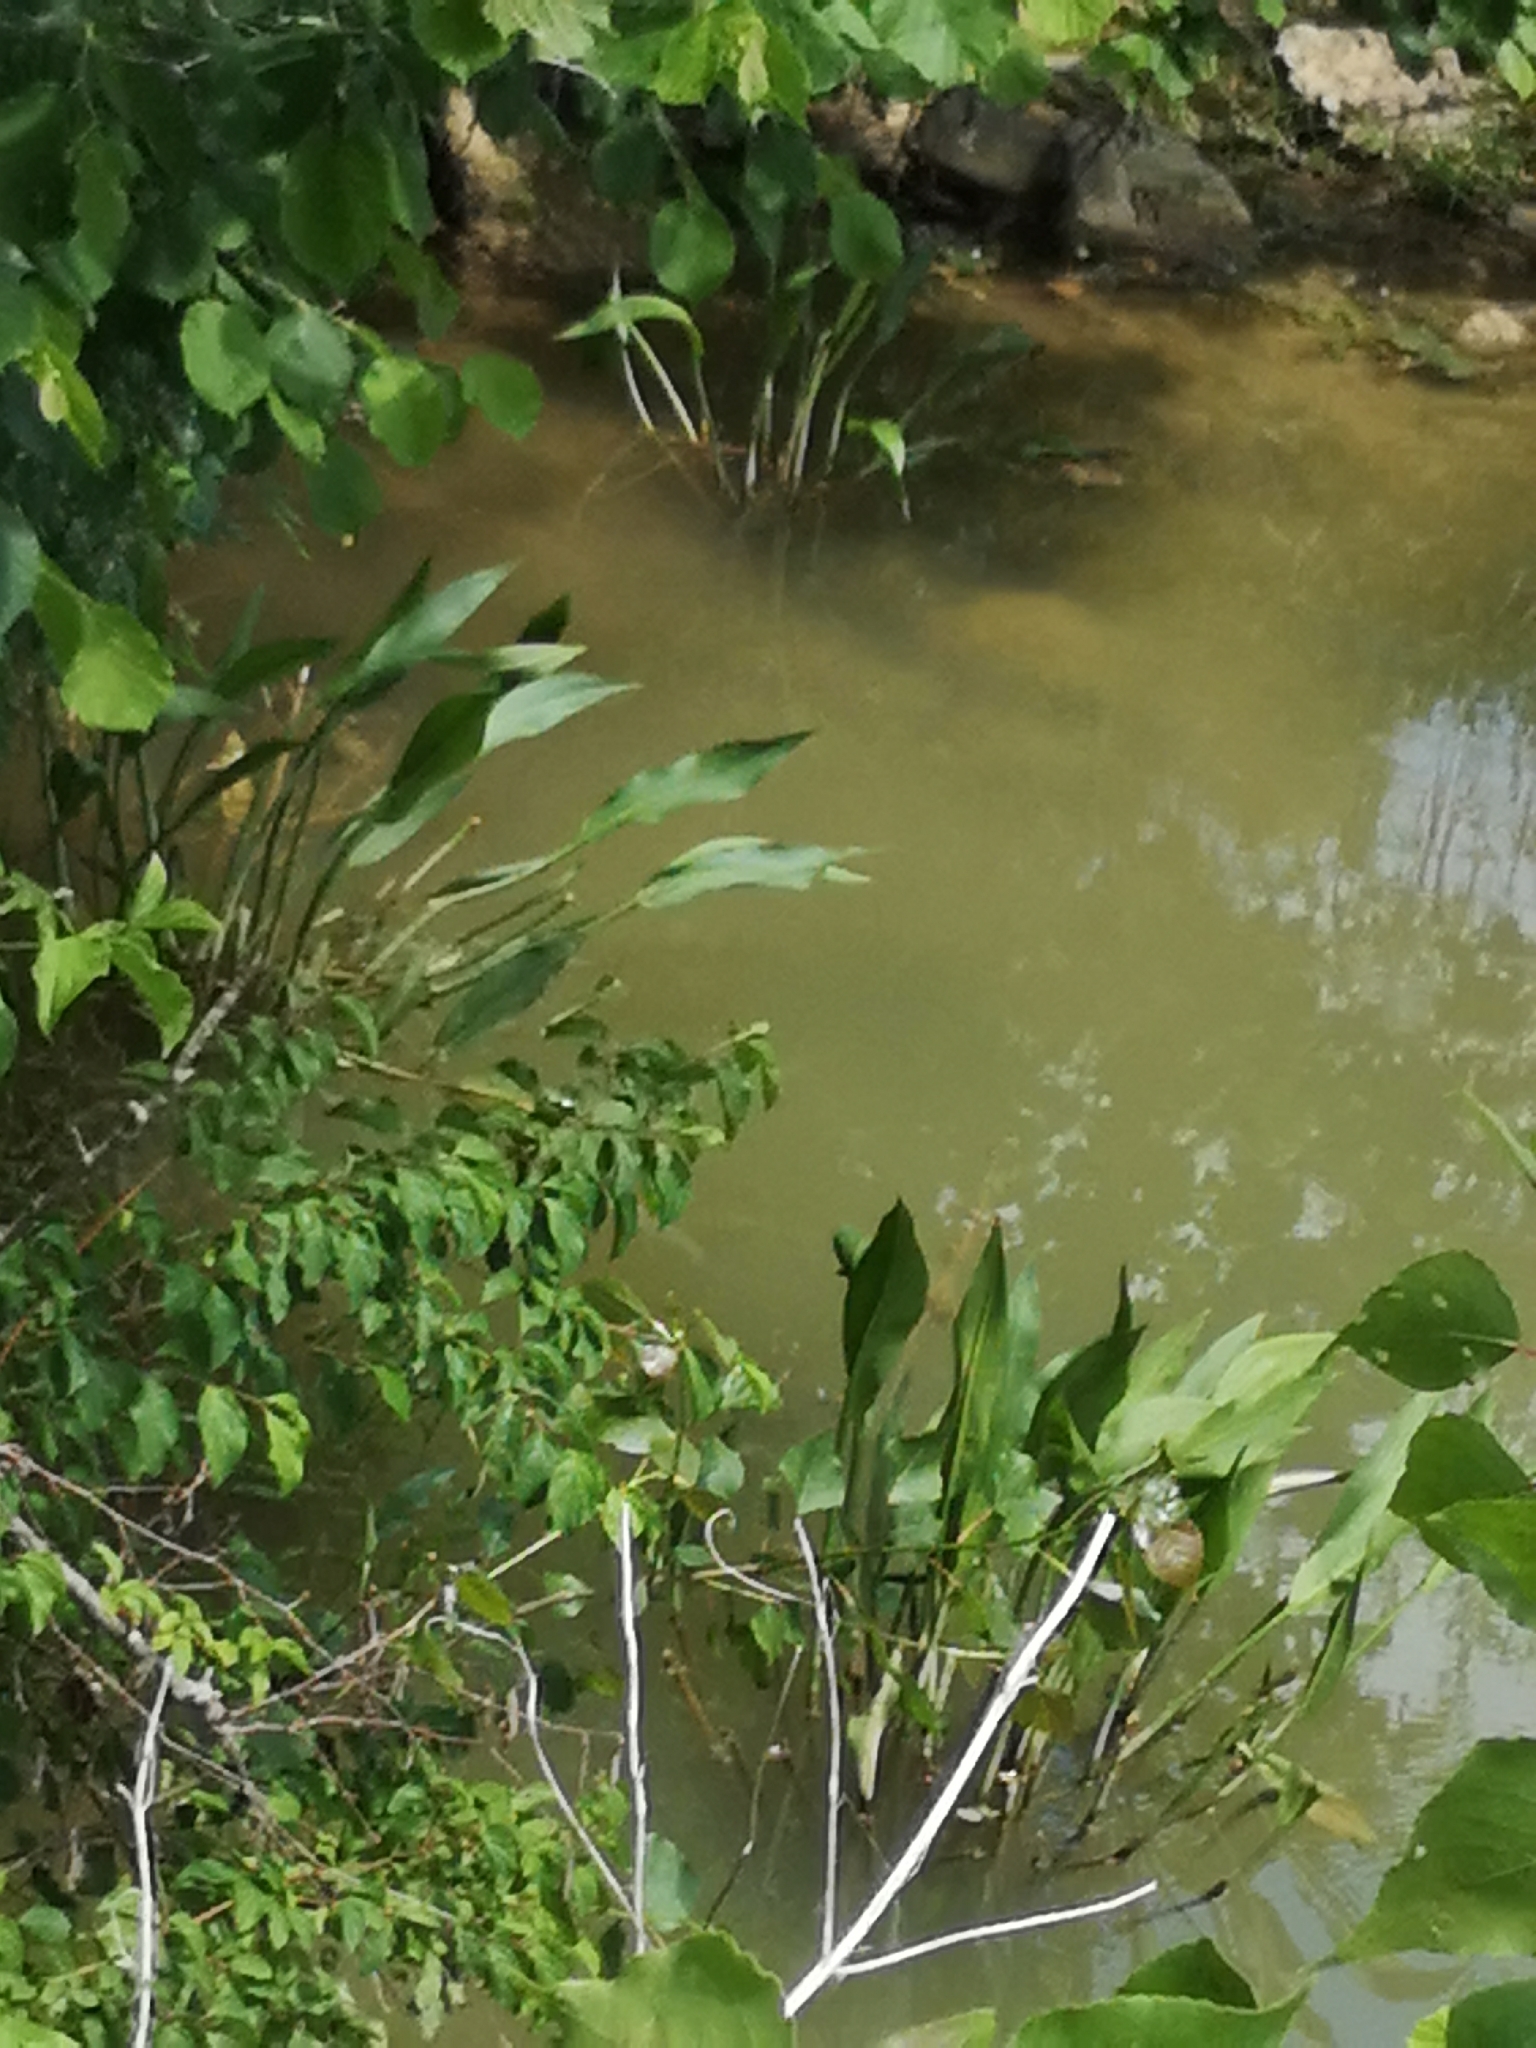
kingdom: Plantae
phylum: Tracheophyta
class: Liliopsida
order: Alismatales
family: Alismataceae
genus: Alisma
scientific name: Alisma lanceolatum
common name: Narrow-leaved water-plantain
